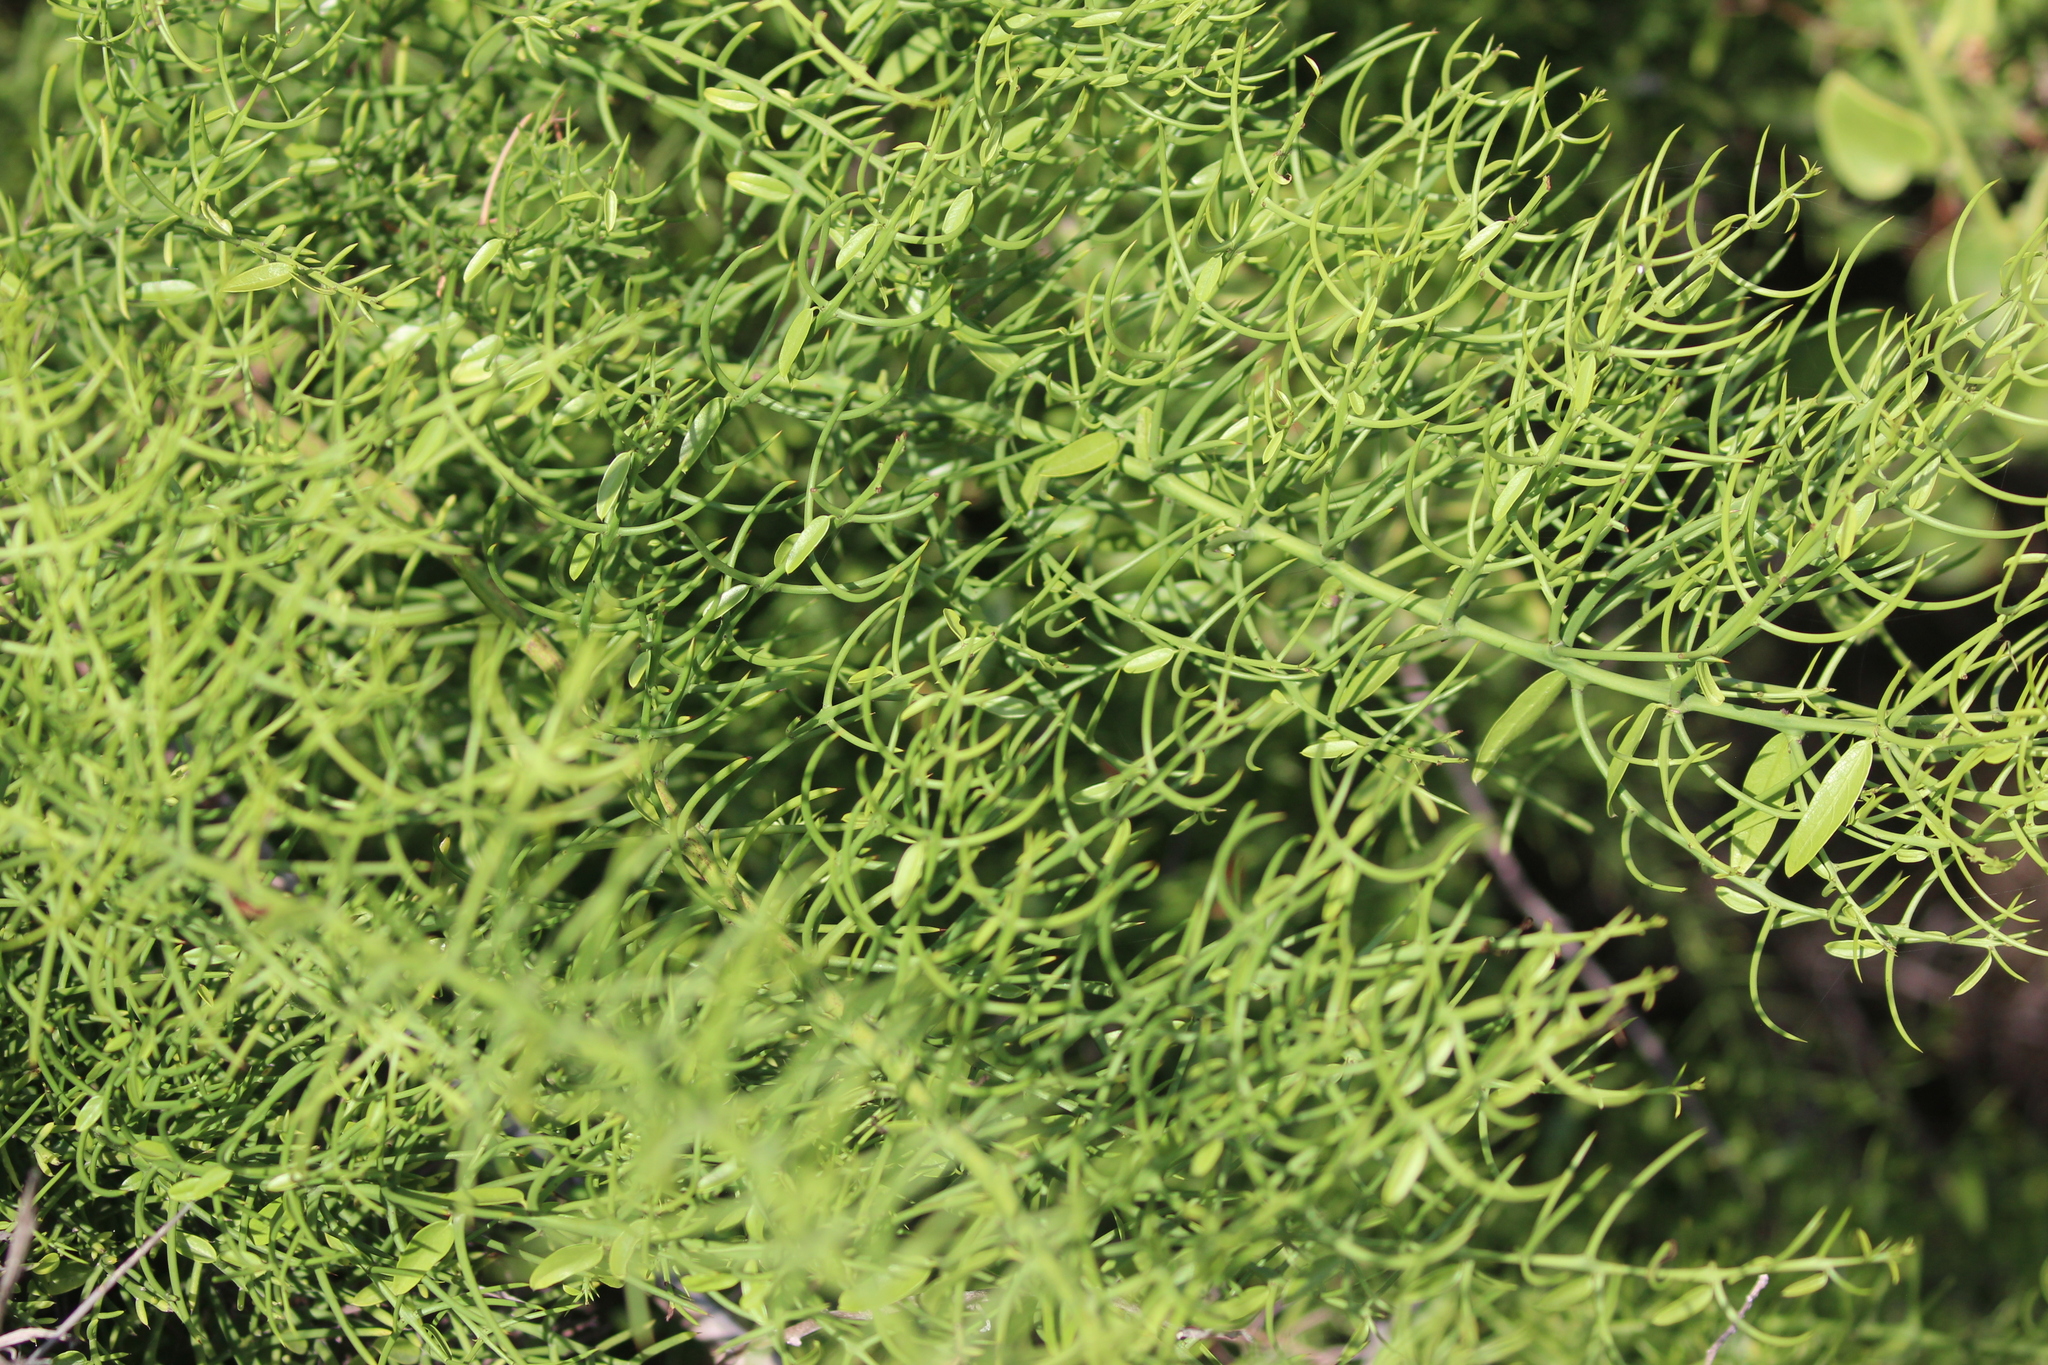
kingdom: Plantae
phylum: Tracheophyta
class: Magnoliopsida
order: Rosales
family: Rhamnaceae
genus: Scutia
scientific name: Scutia spicata
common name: Spiny bush
